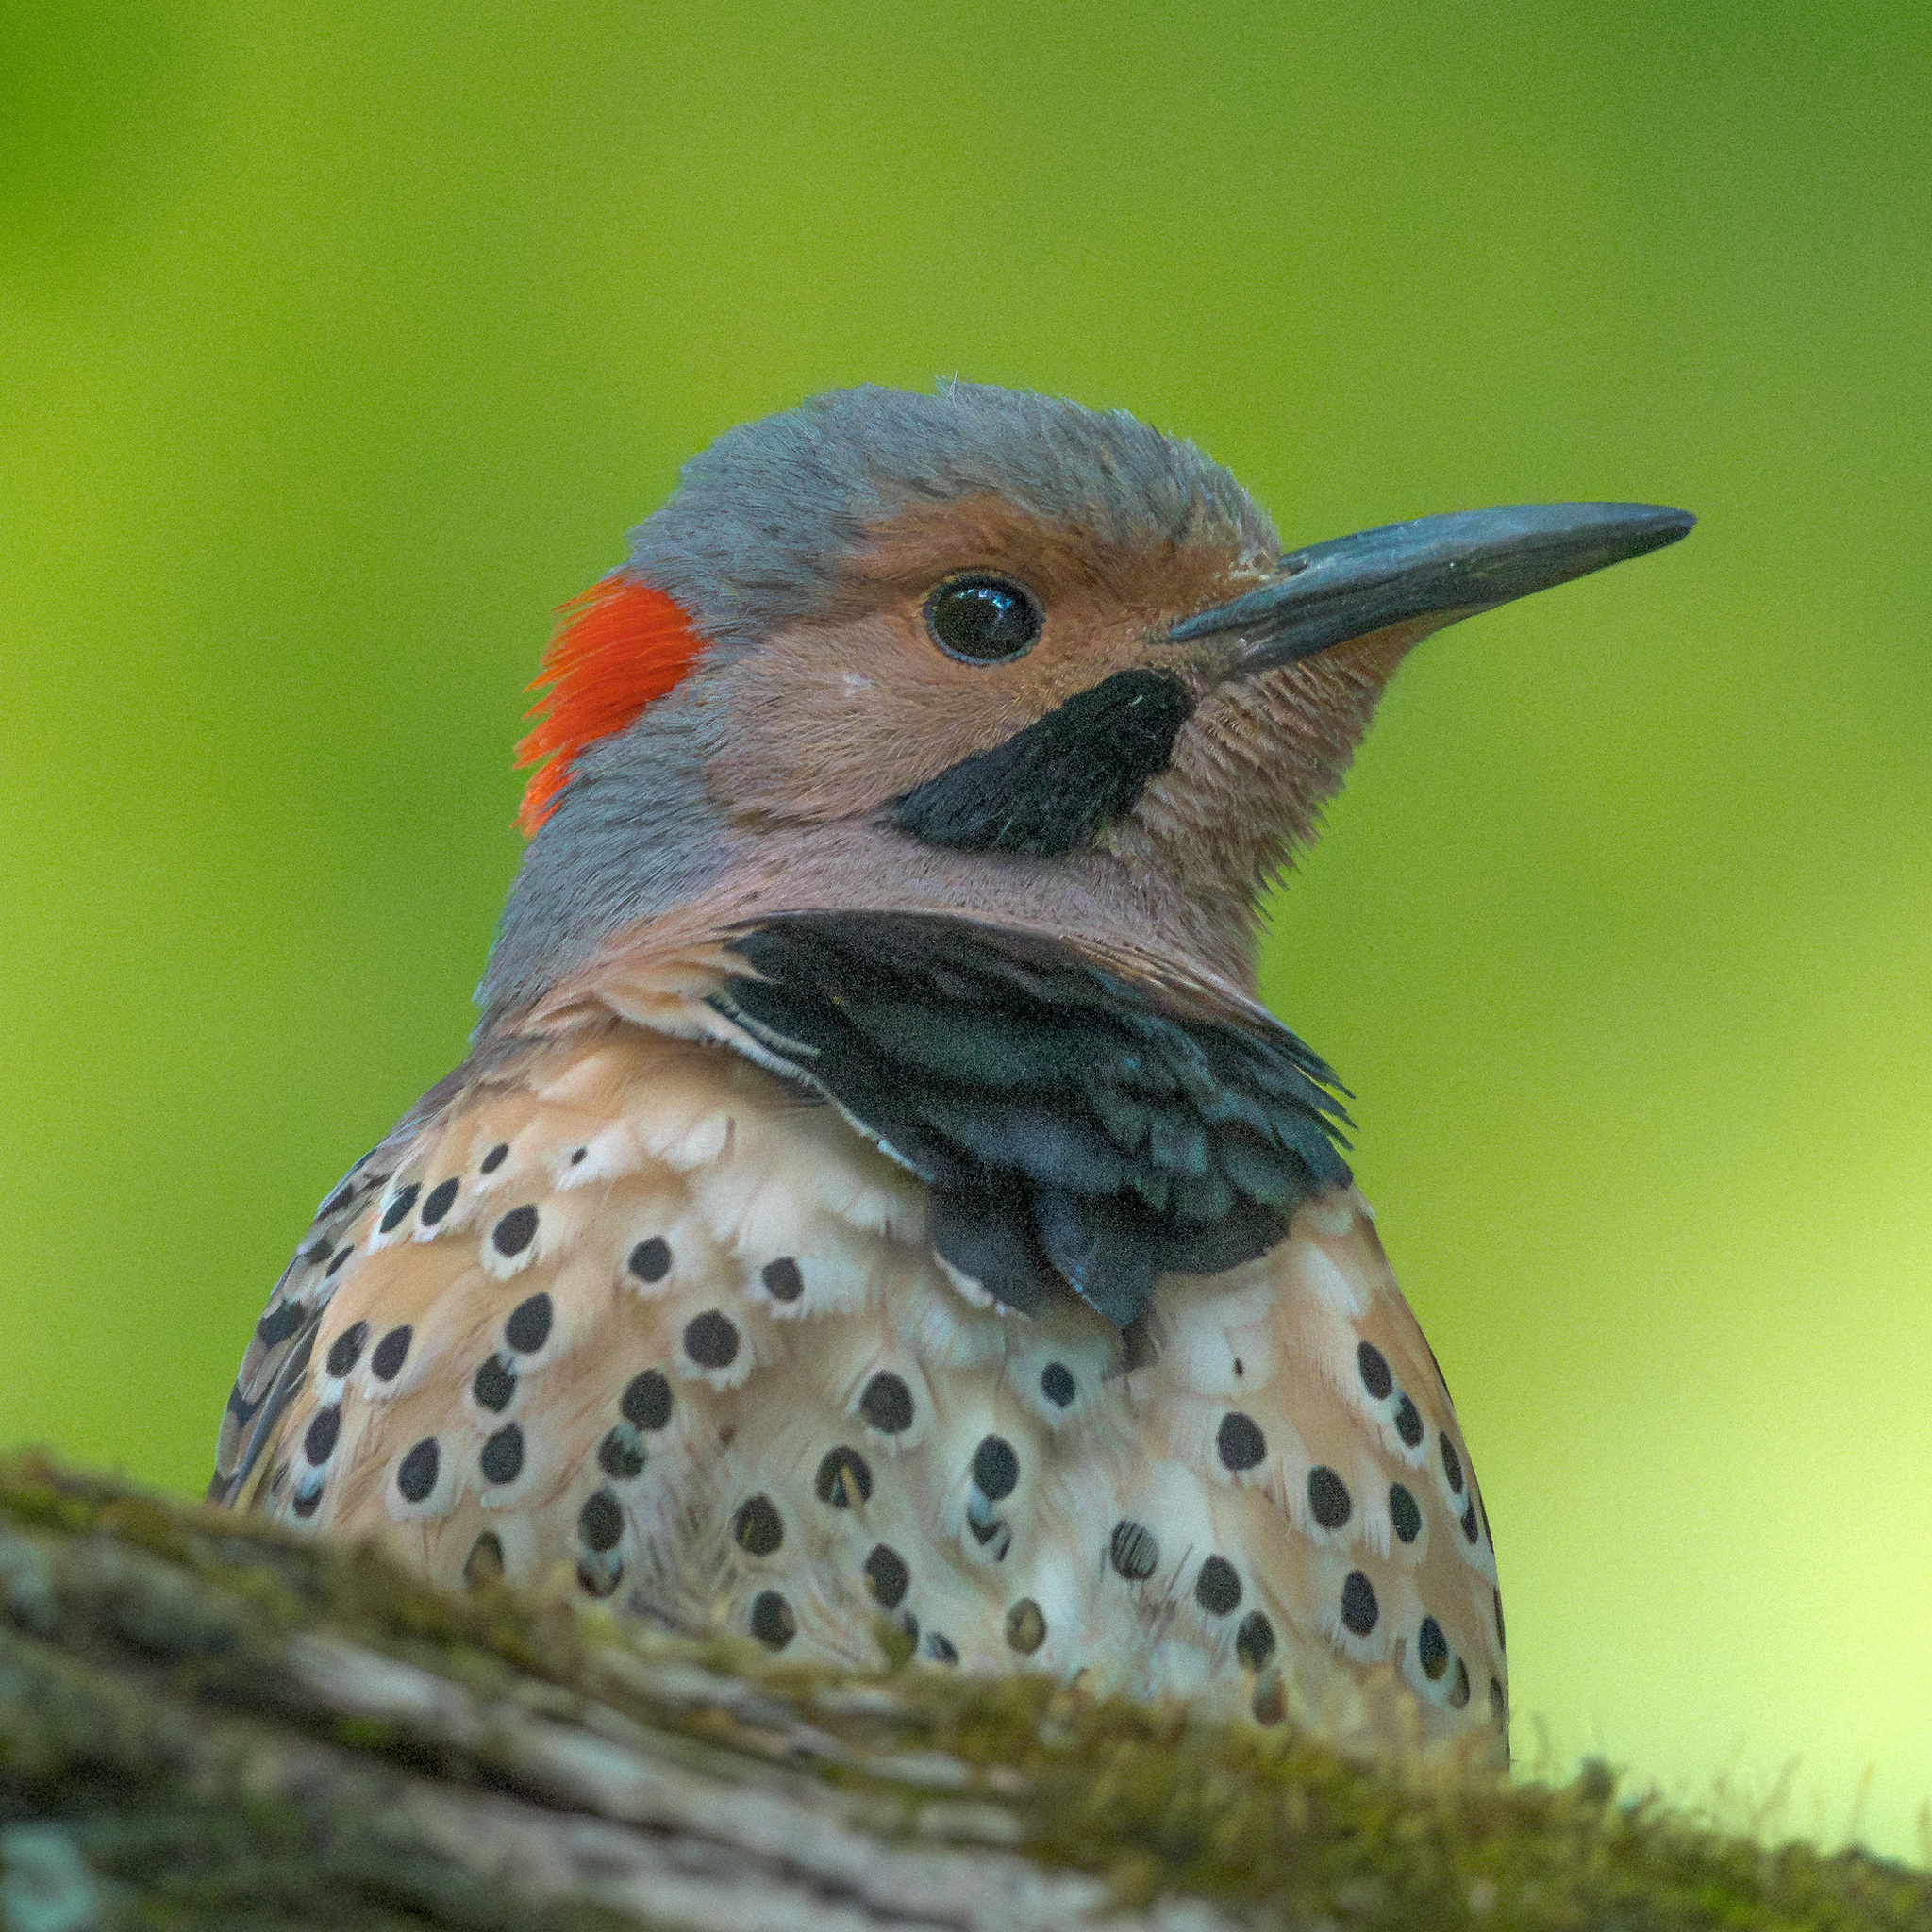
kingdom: Animalia
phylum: Chordata
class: Aves
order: Piciformes
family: Picidae
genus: Colaptes
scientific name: Colaptes auratus
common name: Northern flicker
